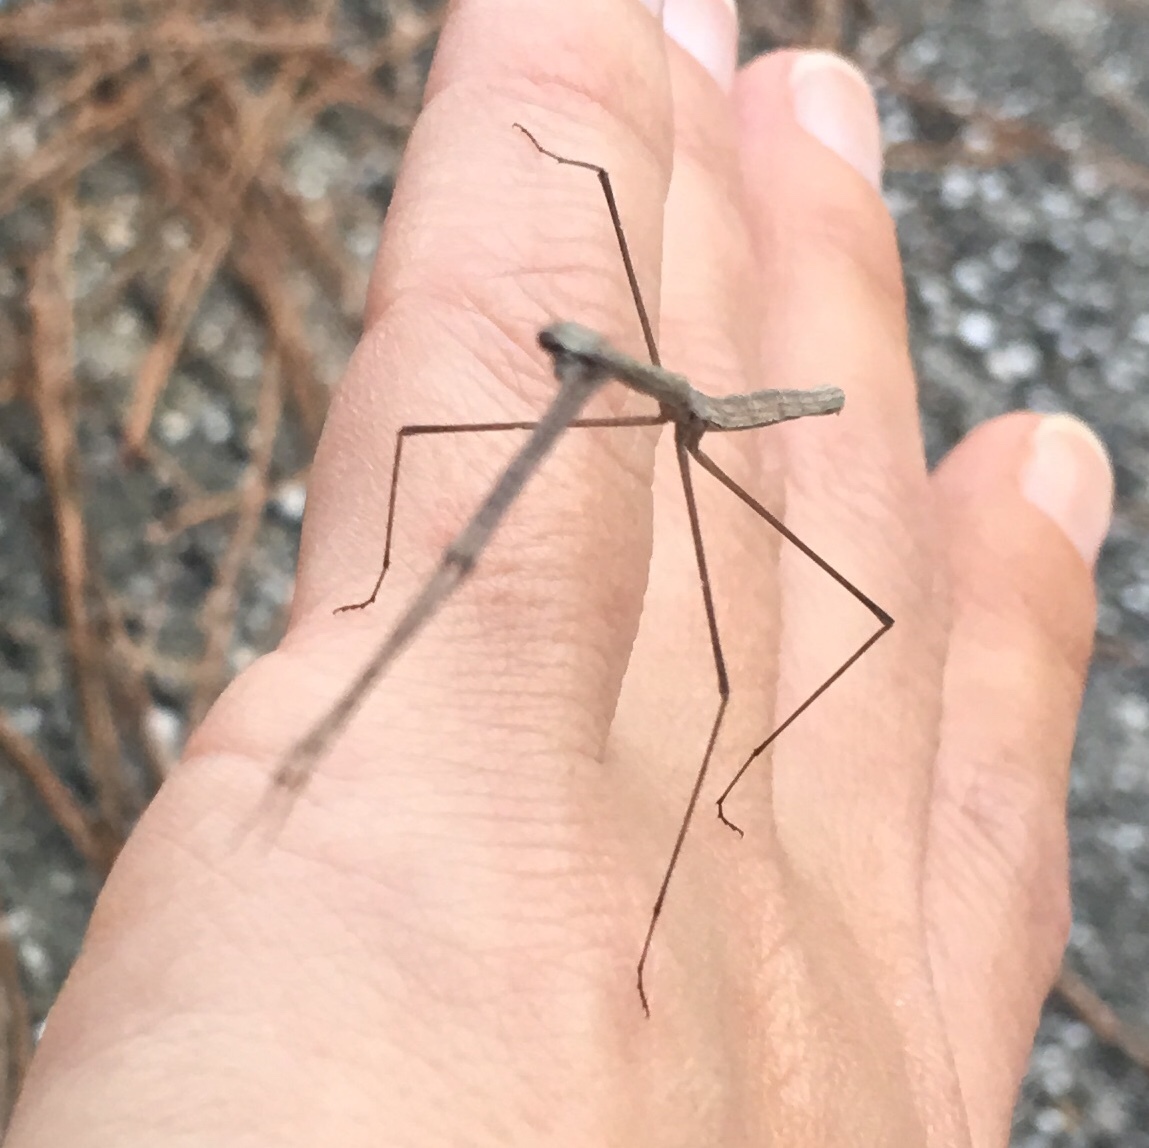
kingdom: Animalia
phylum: Arthropoda
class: Insecta
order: Mantodea
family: Thespidae
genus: Thesprotia
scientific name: Thesprotia graminis
